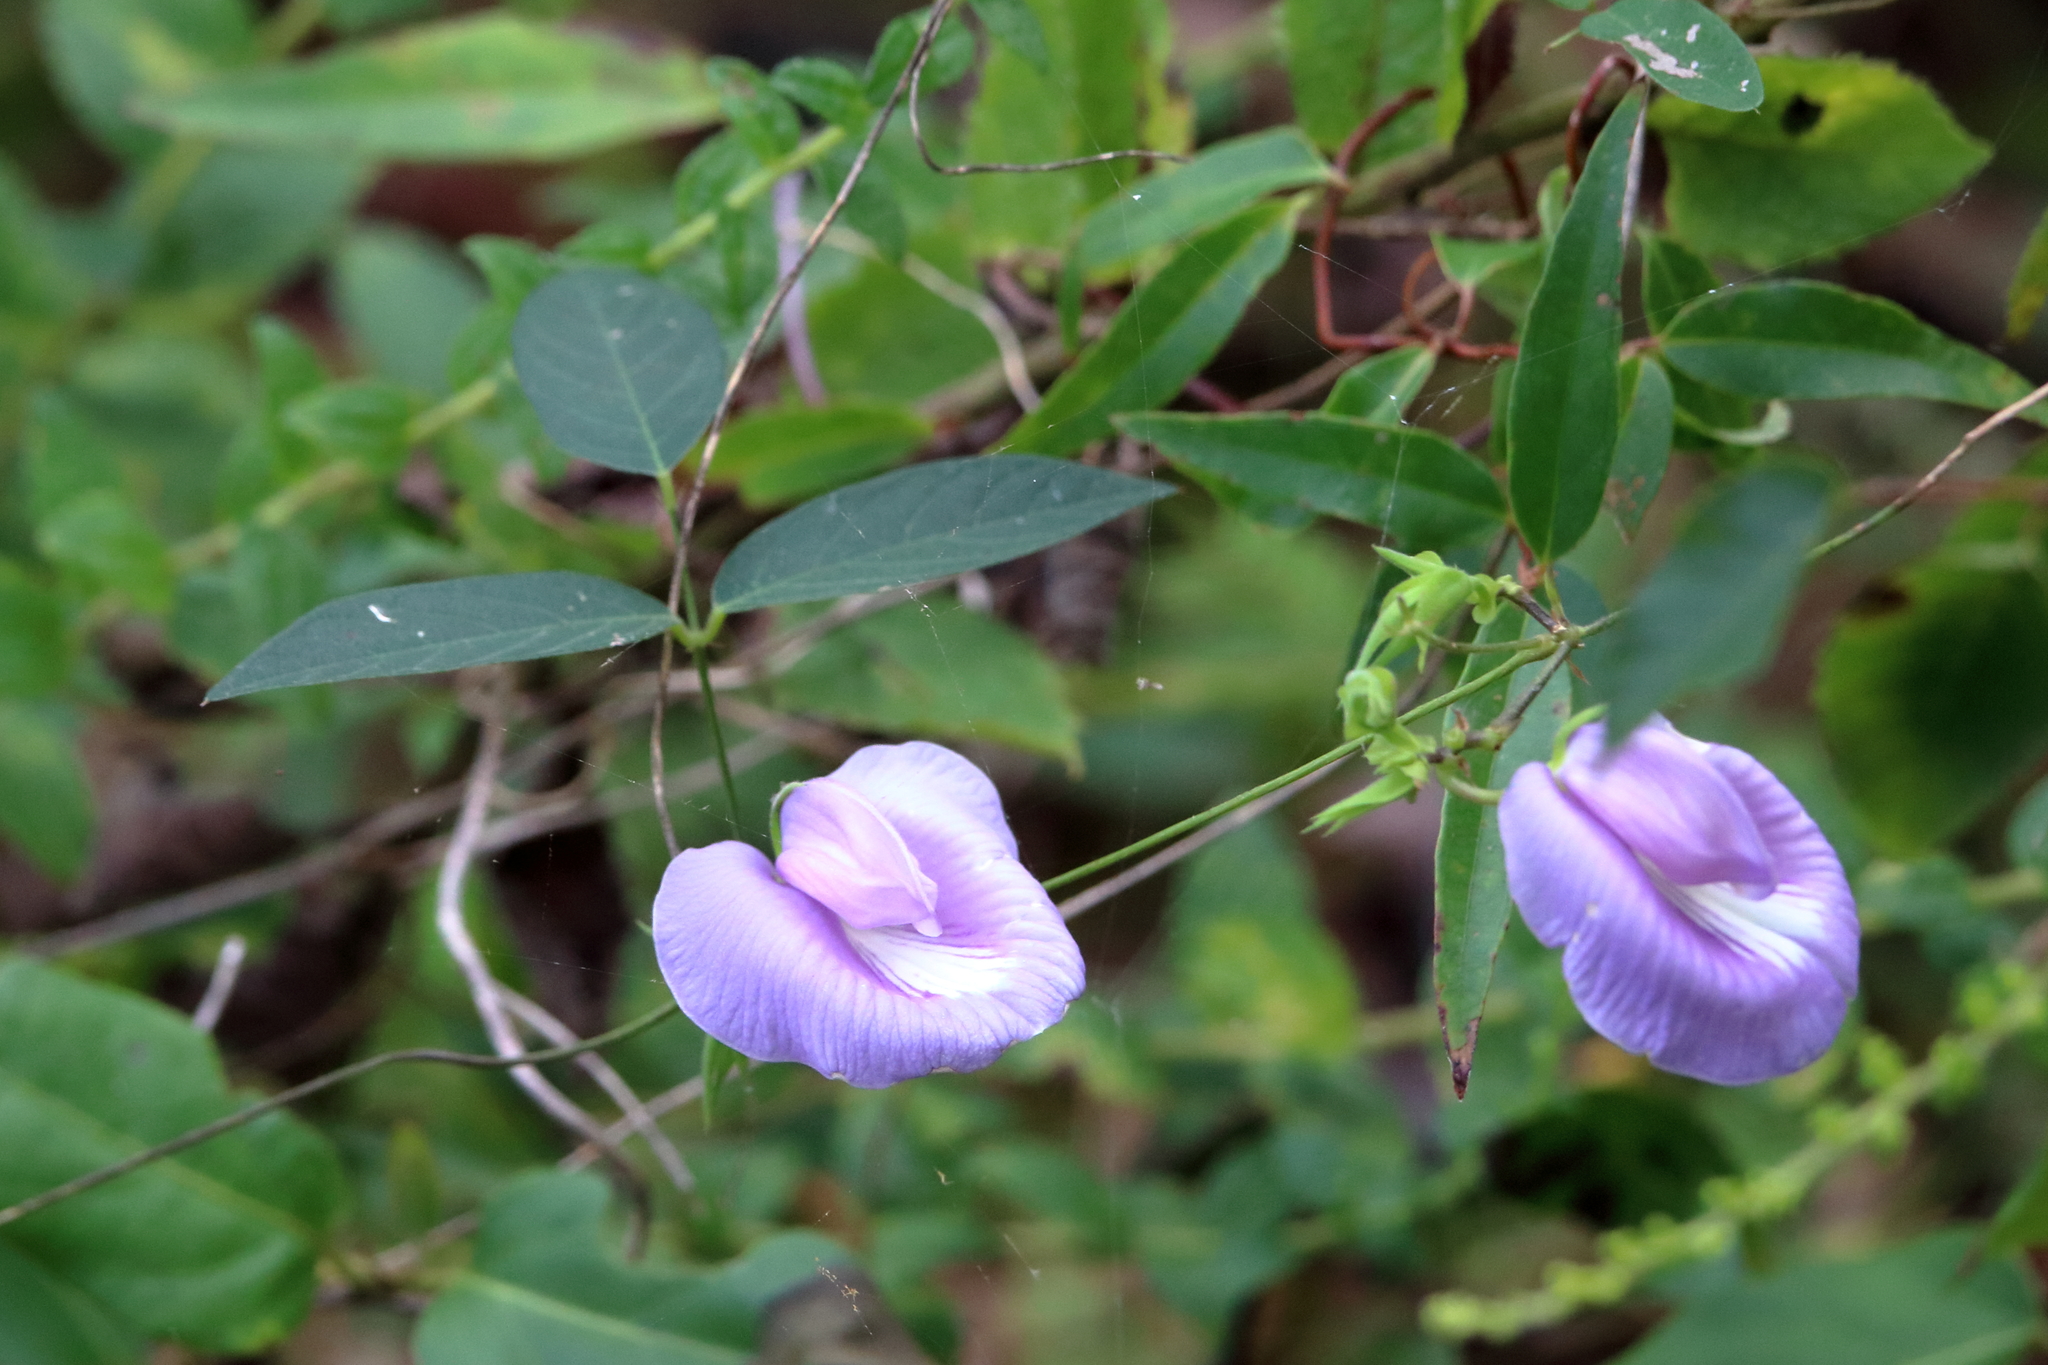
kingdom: Plantae
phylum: Tracheophyta
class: Magnoliopsida
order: Fabales
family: Fabaceae
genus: Centrosema
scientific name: Centrosema virginianum
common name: Butterfly-pea
